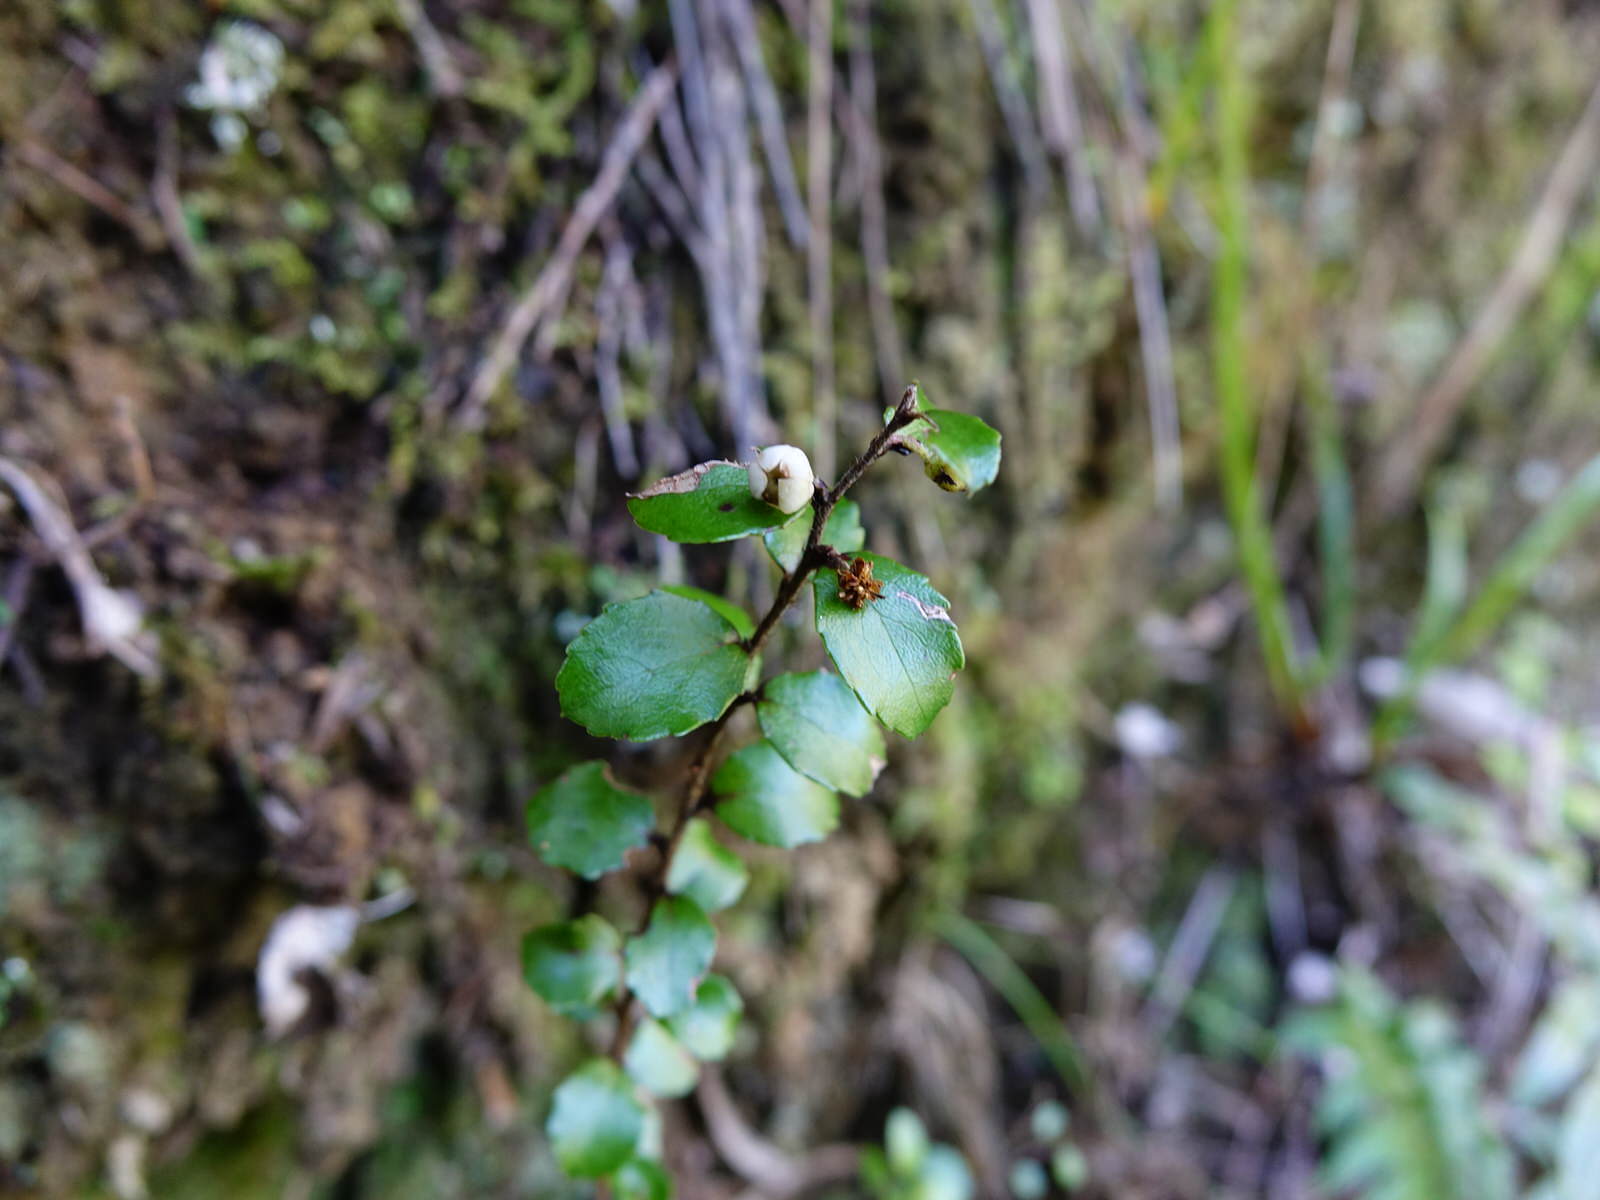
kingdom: Plantae
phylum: Tracheophyta
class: Magnoliopsida
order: Ericales
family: Ericaceae
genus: Gaultheria
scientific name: Gaultheria antipoda
